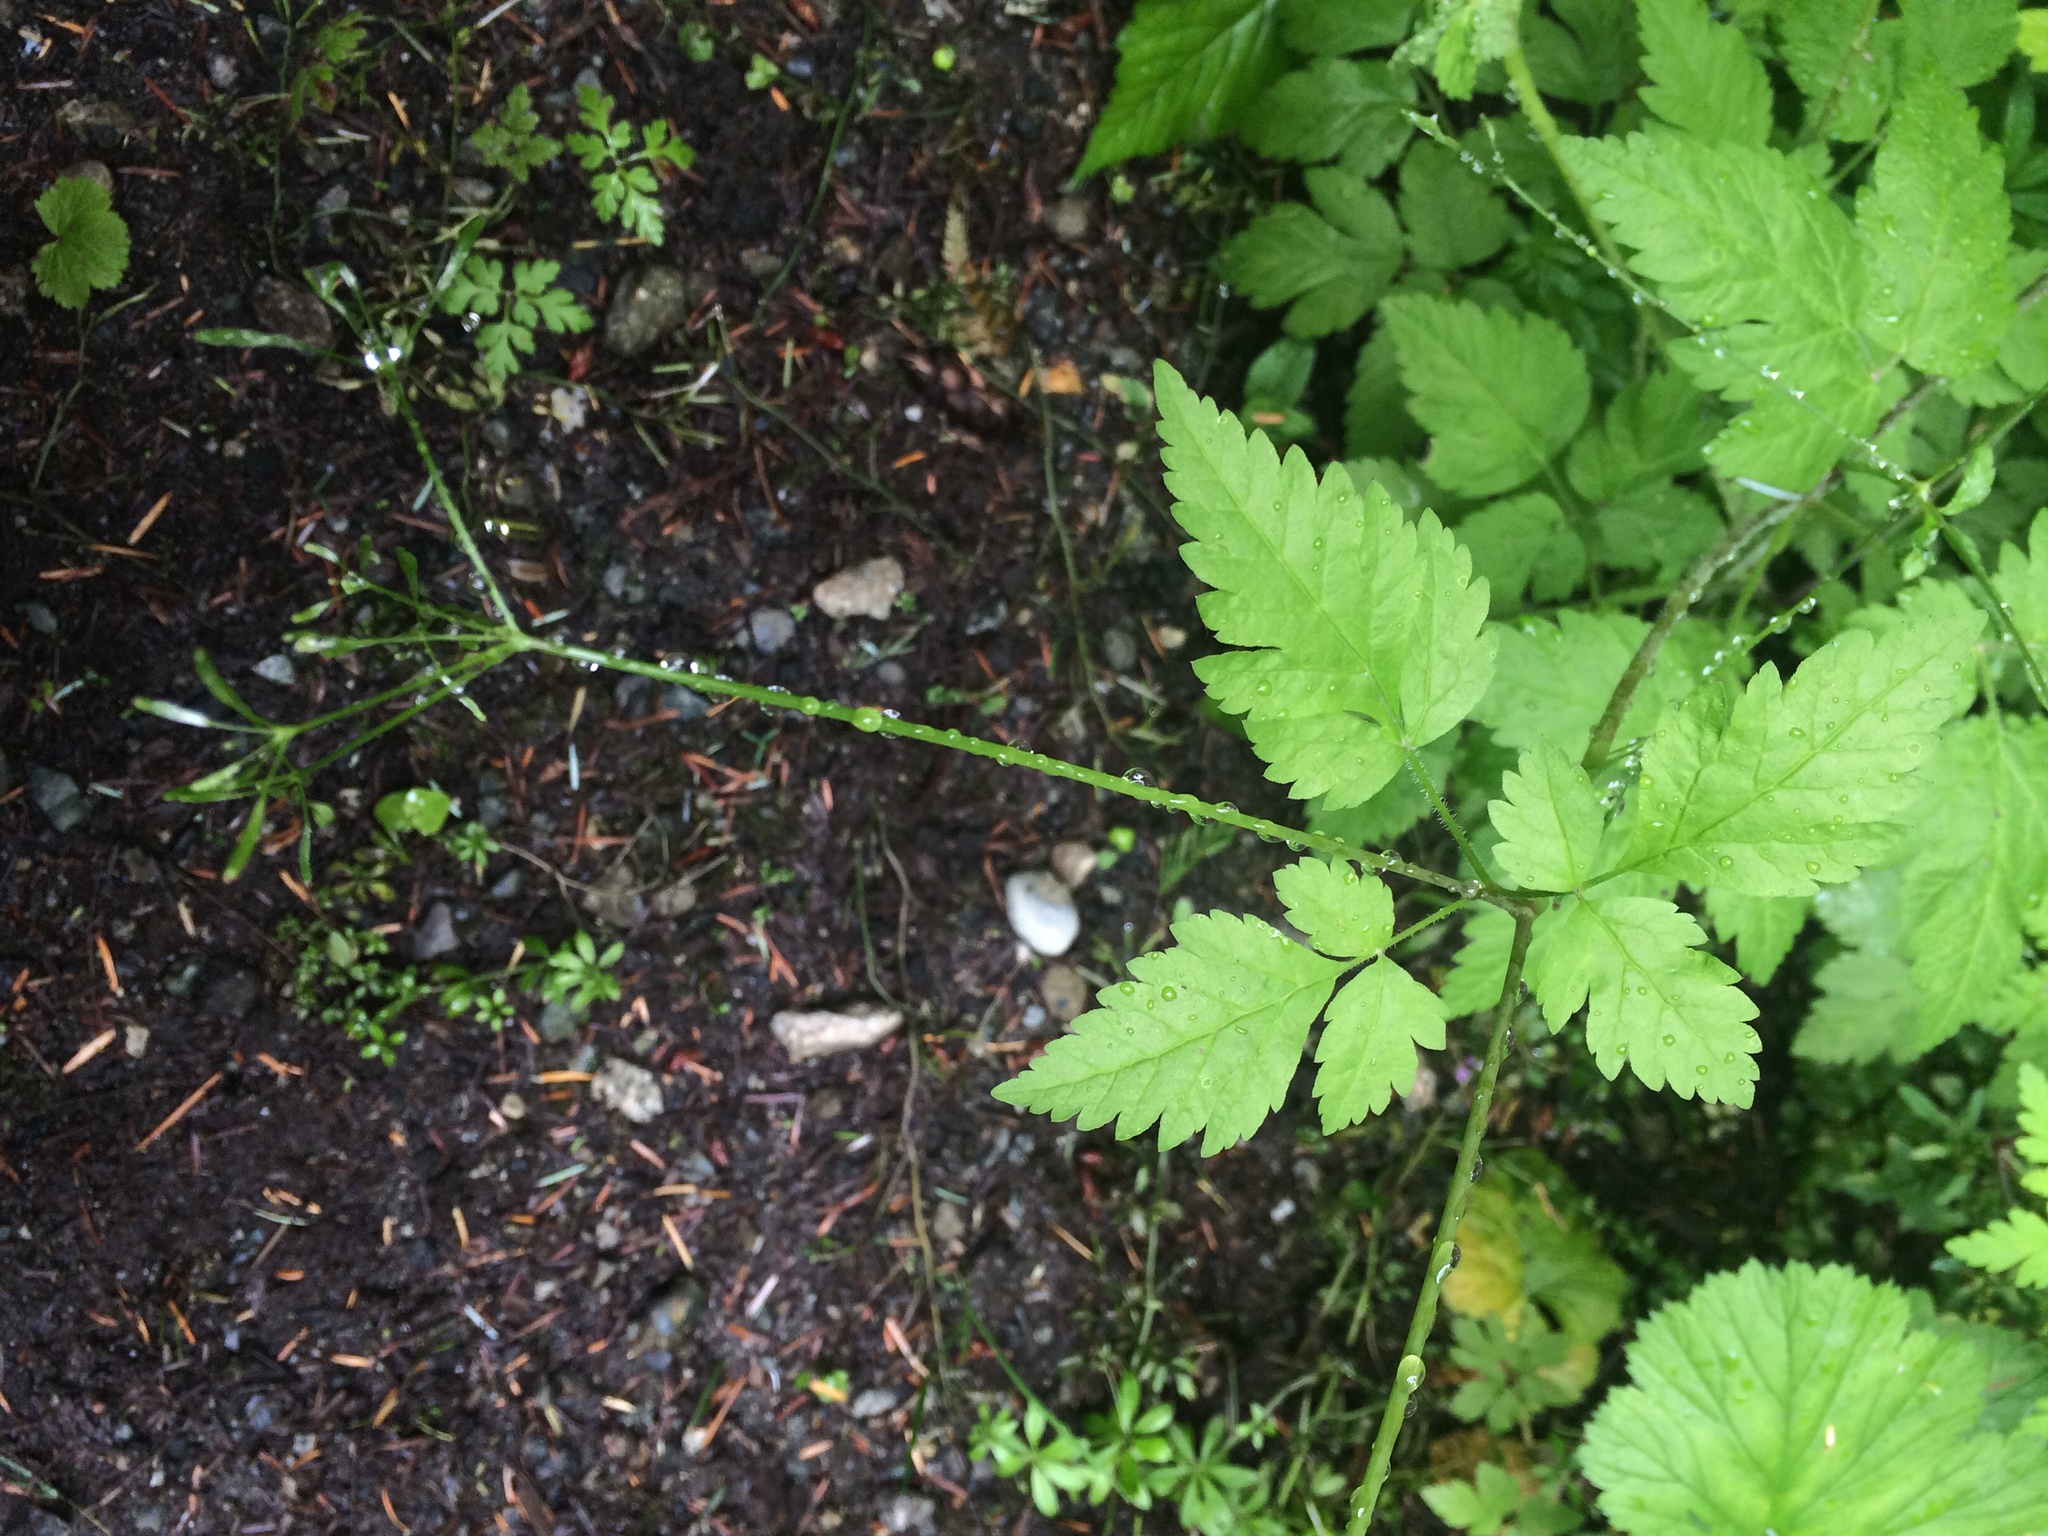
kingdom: Plantae
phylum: Tracheophyta
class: Magnoliopsida
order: Apiales
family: Apiaceae
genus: Osmorhiza
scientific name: Osmorhiza berteroi
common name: Mountain sweet cicely
